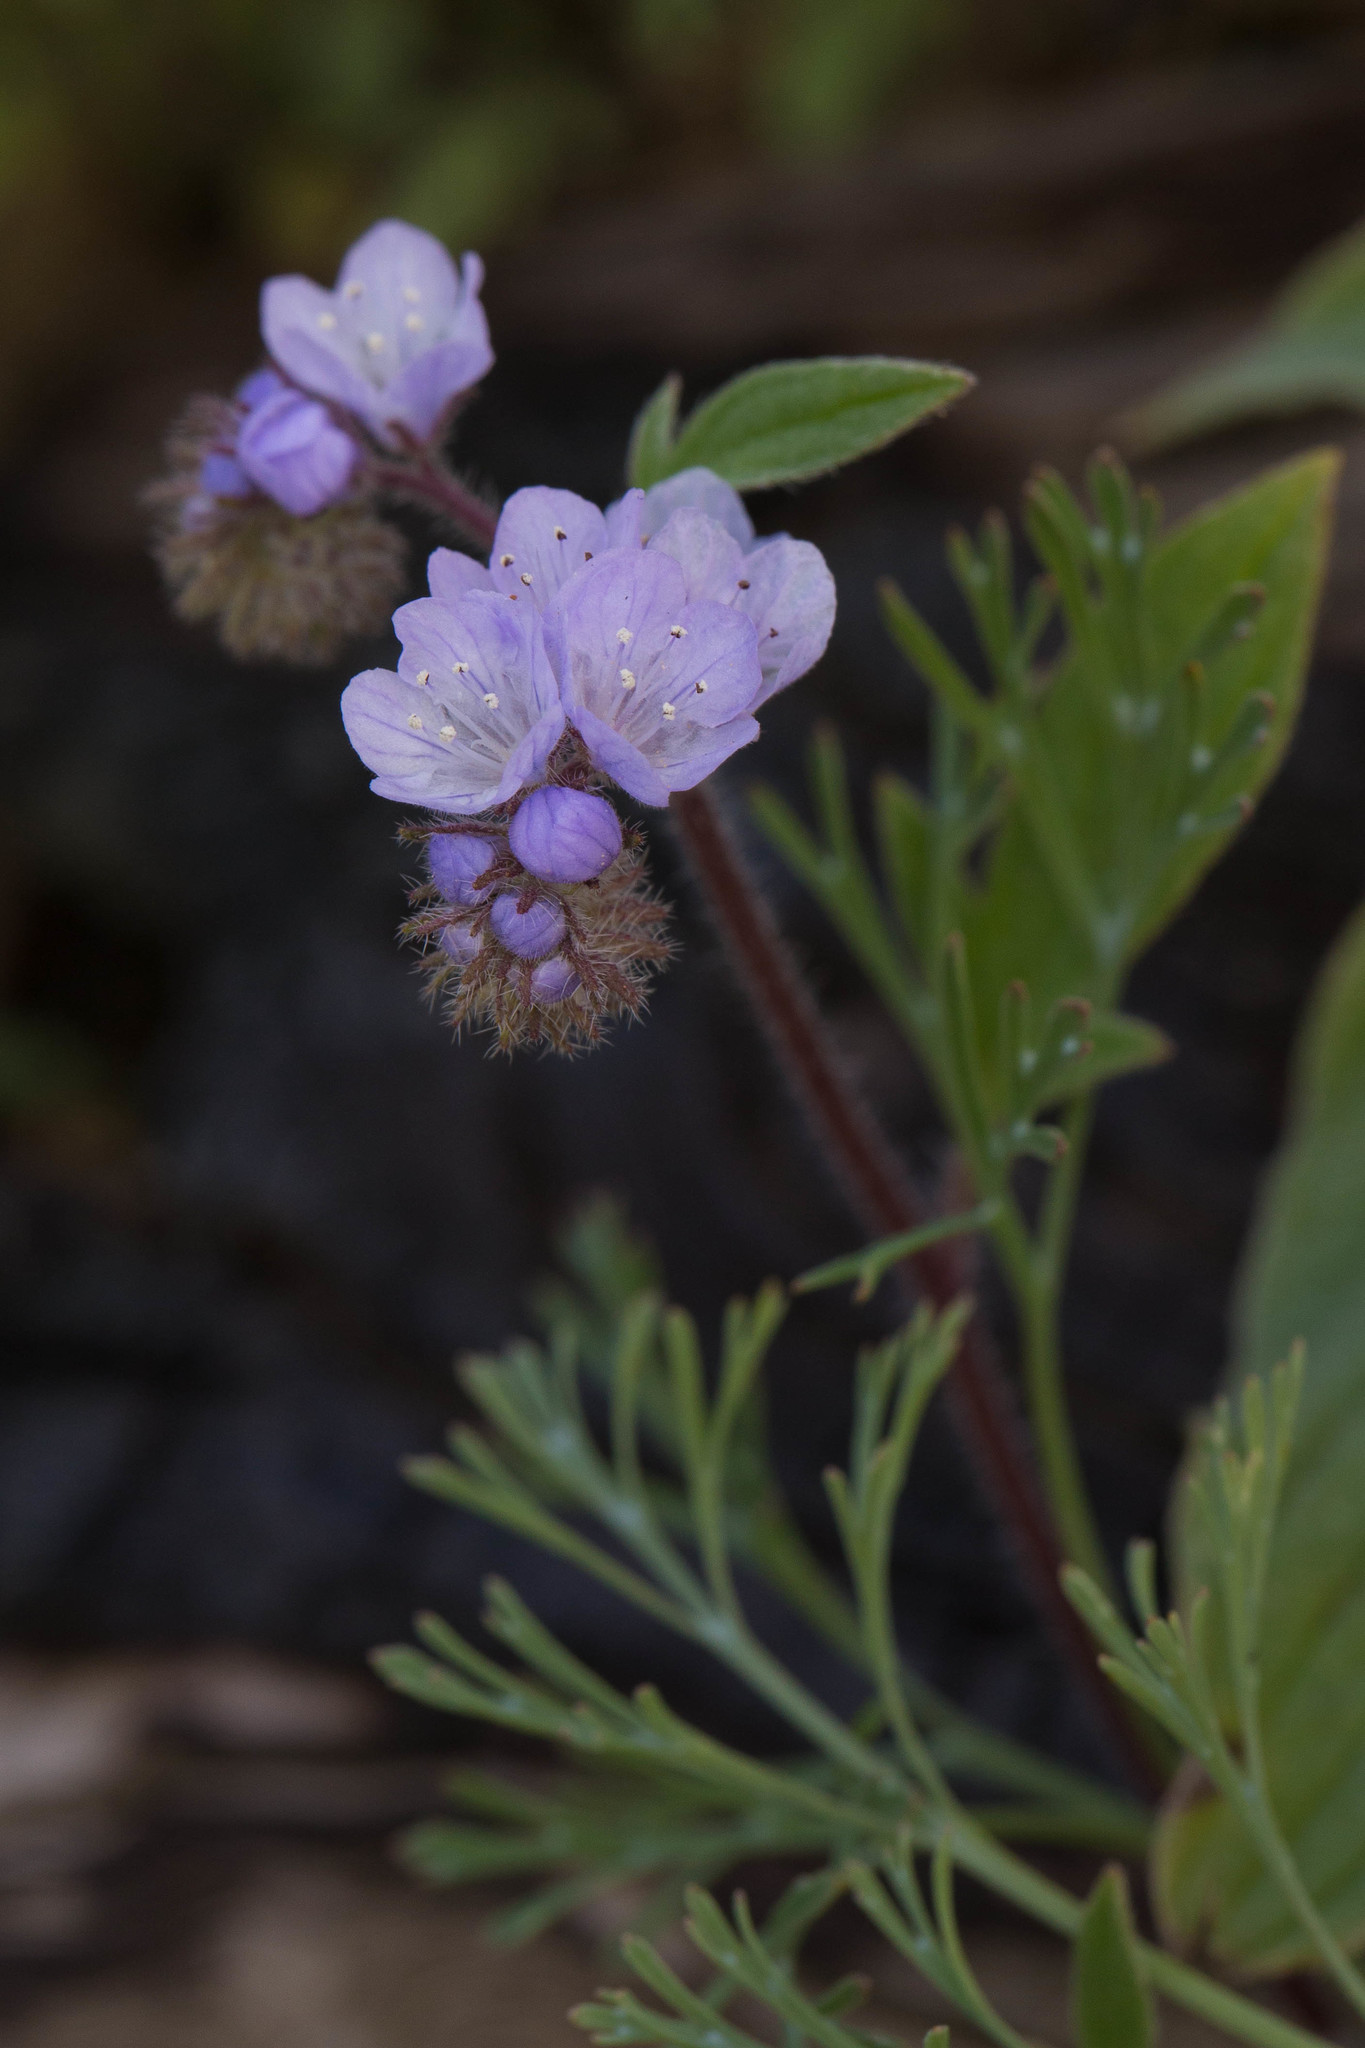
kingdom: Plantae
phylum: Tracheophyta
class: Magnoliopsida
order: Boraginales
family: Hydrophyllaceae
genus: Phacelia
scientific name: Phacelia breweri
